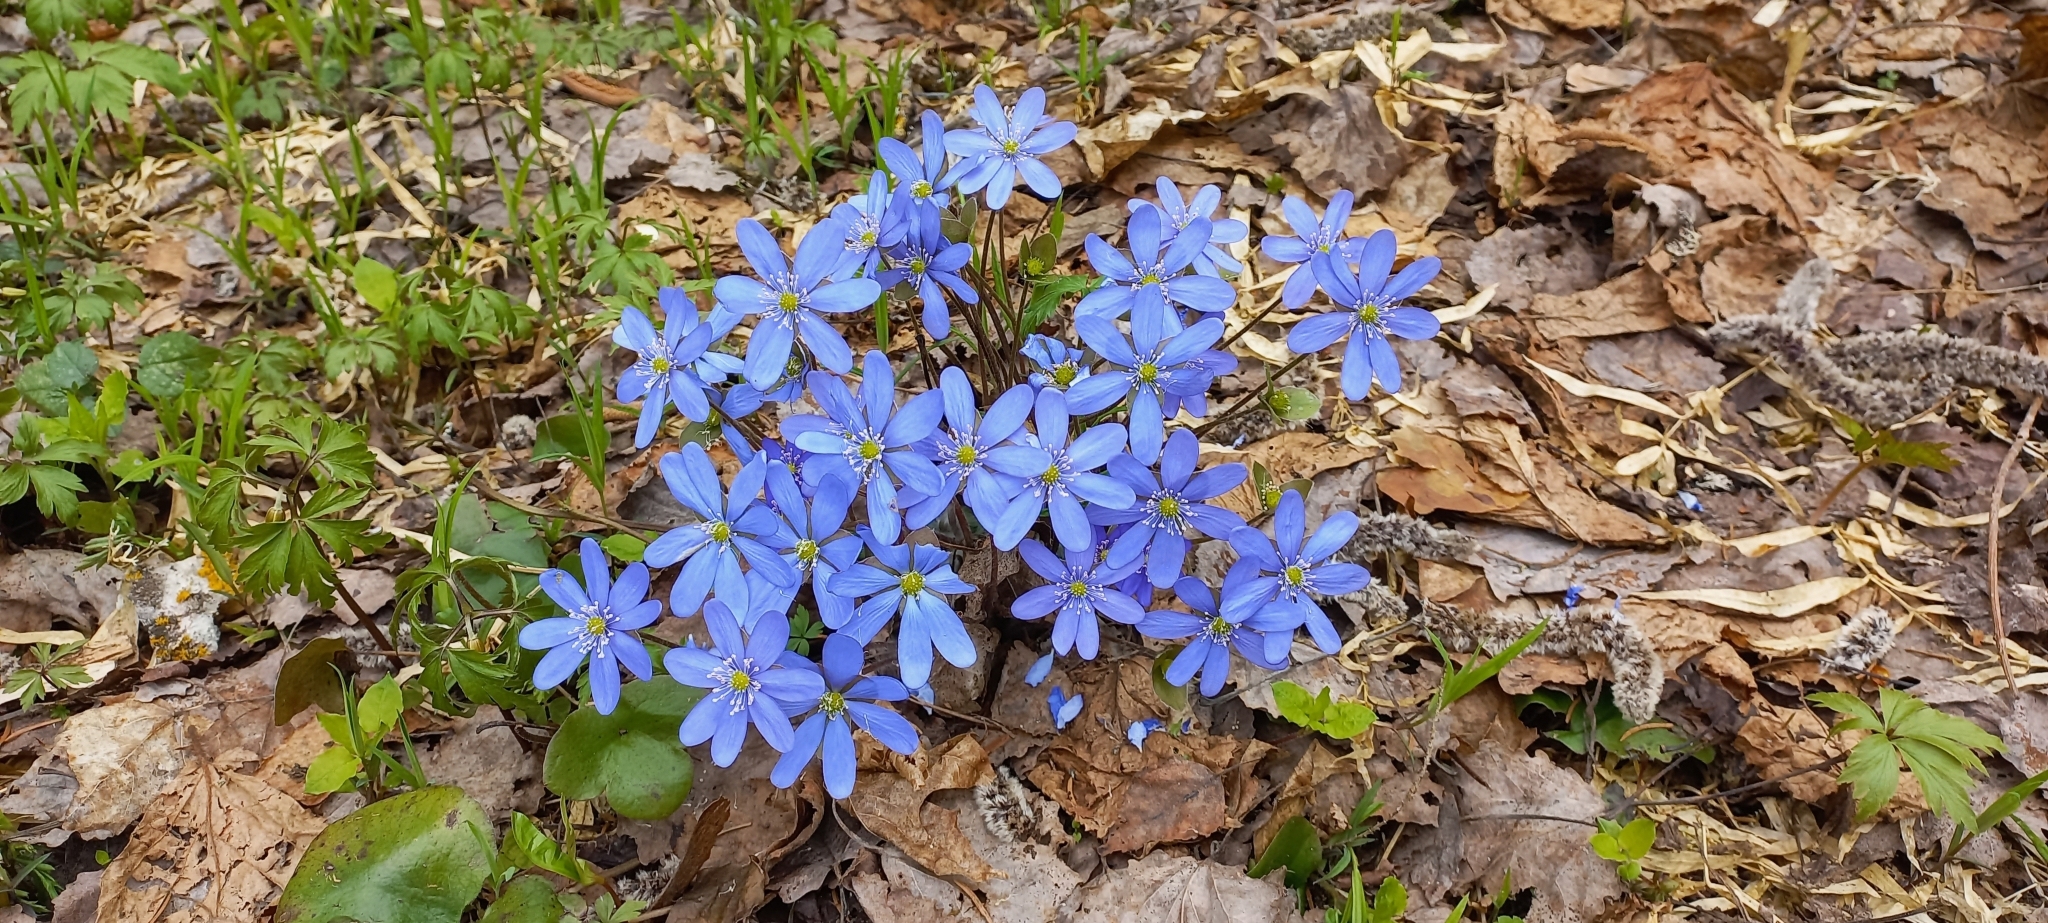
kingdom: Plantae
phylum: Tracheophyta
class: Magnoliopsida
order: Ranunculales
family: Ranunculaceae
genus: Hepatica
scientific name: Hepatica nobilis
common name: Liverleaf
